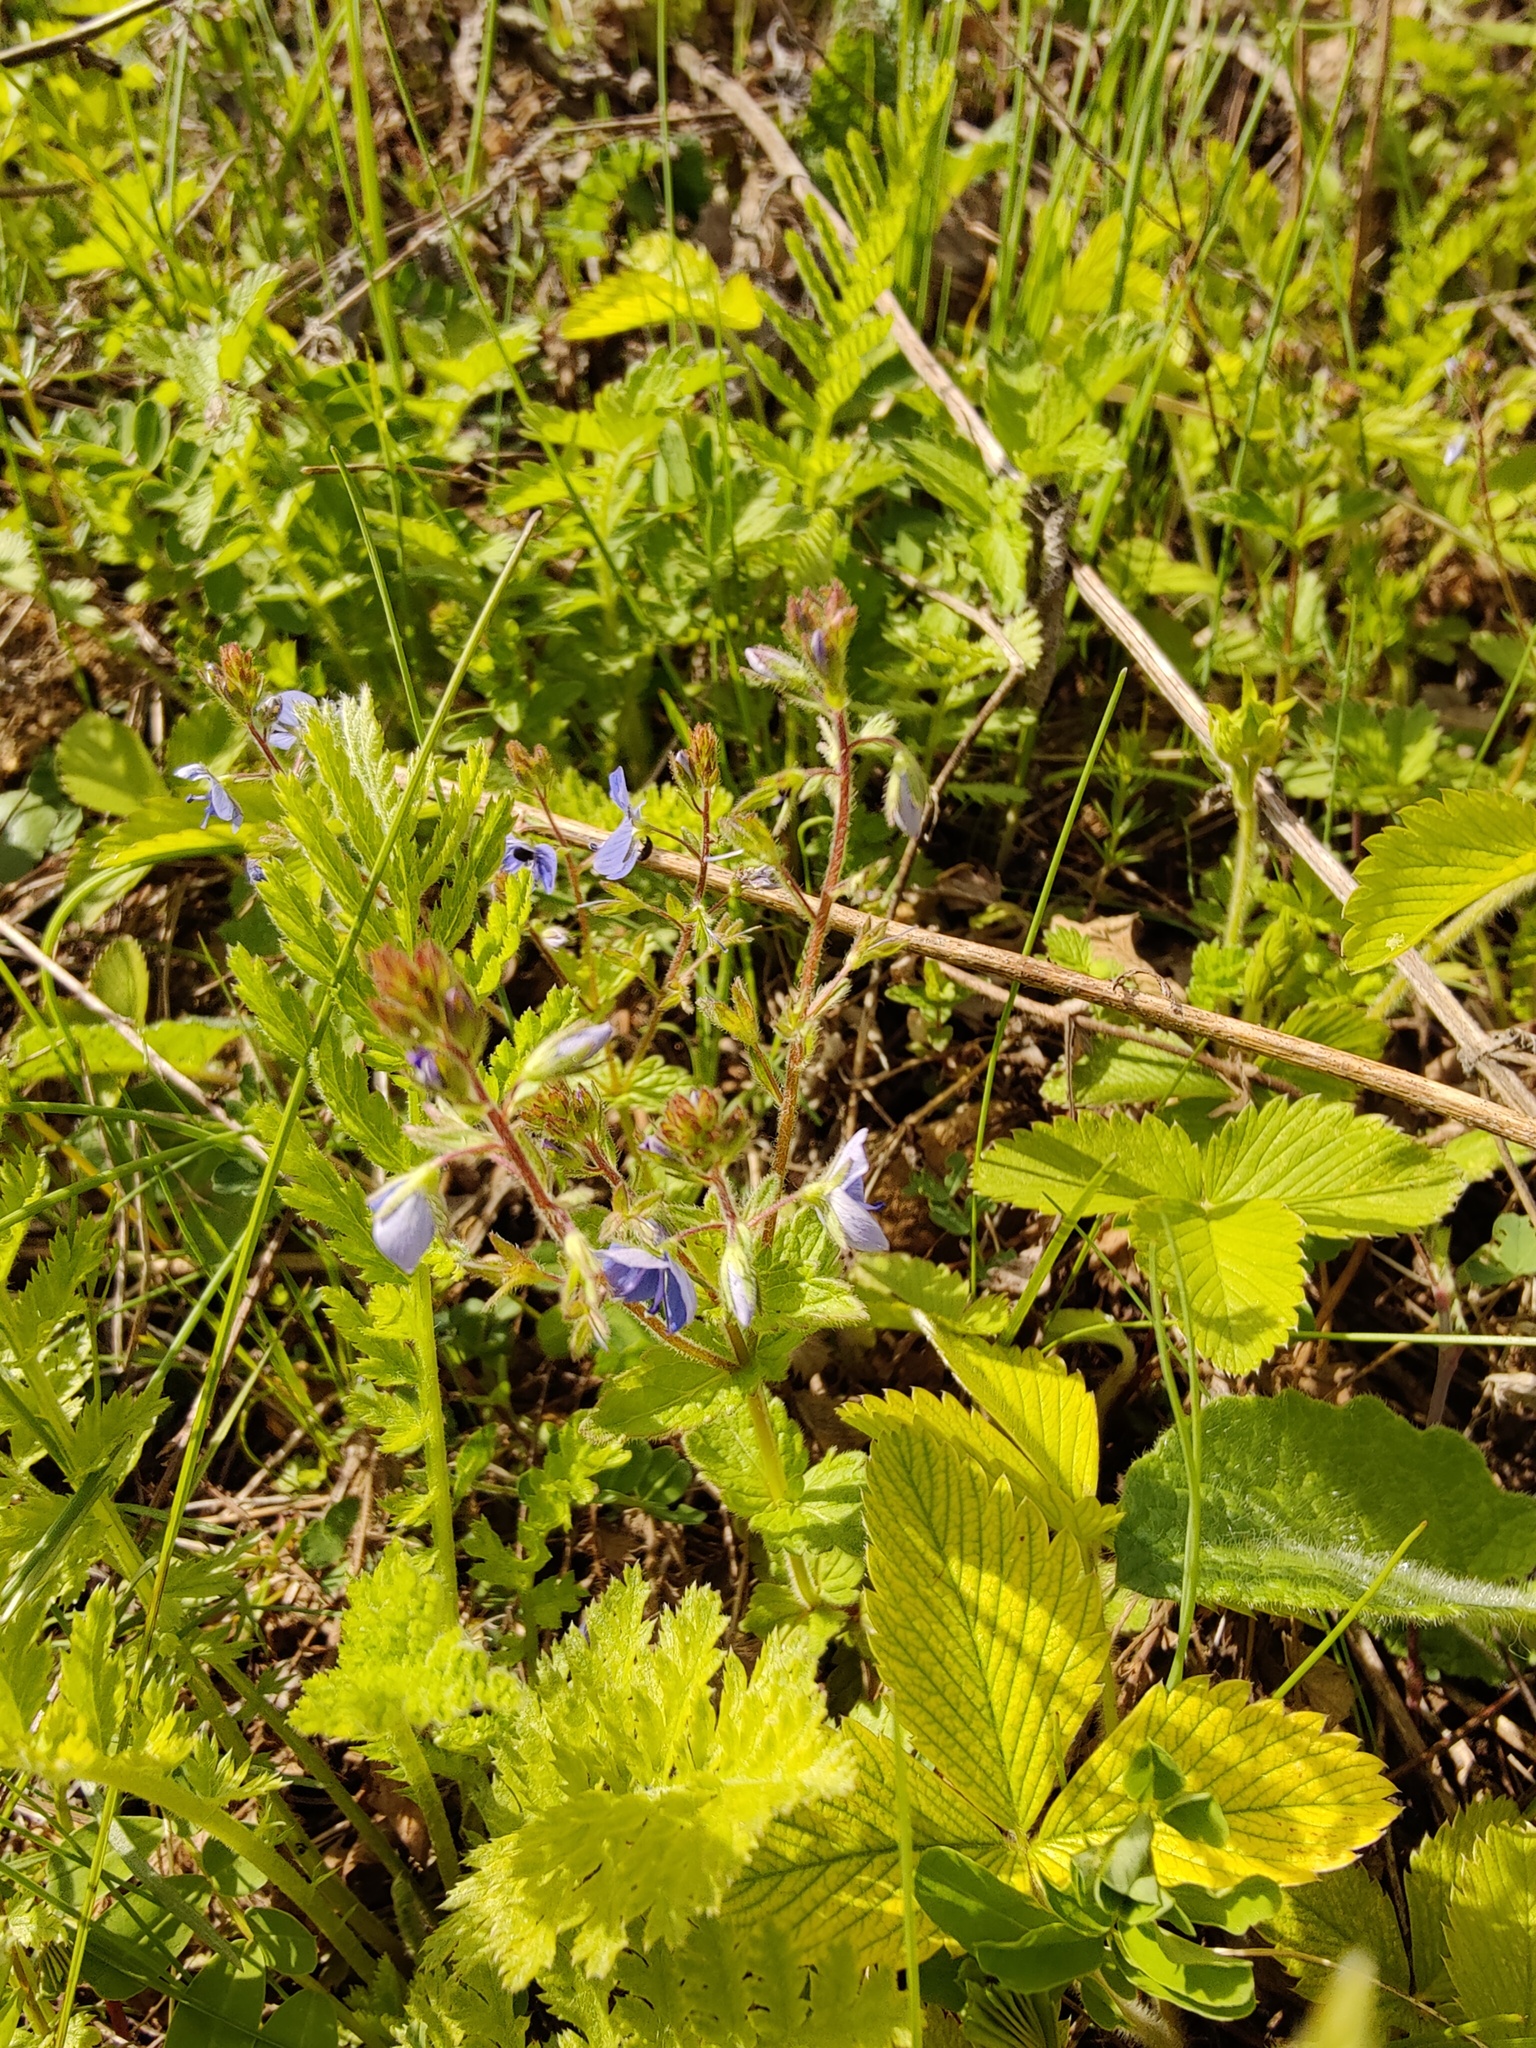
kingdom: Plantae
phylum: Tracheophyta
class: Magnoliopsida
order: Lamiales
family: Plantaginaceae
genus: Veronica
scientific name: Veronica chamaedrys
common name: Germander speedwell
